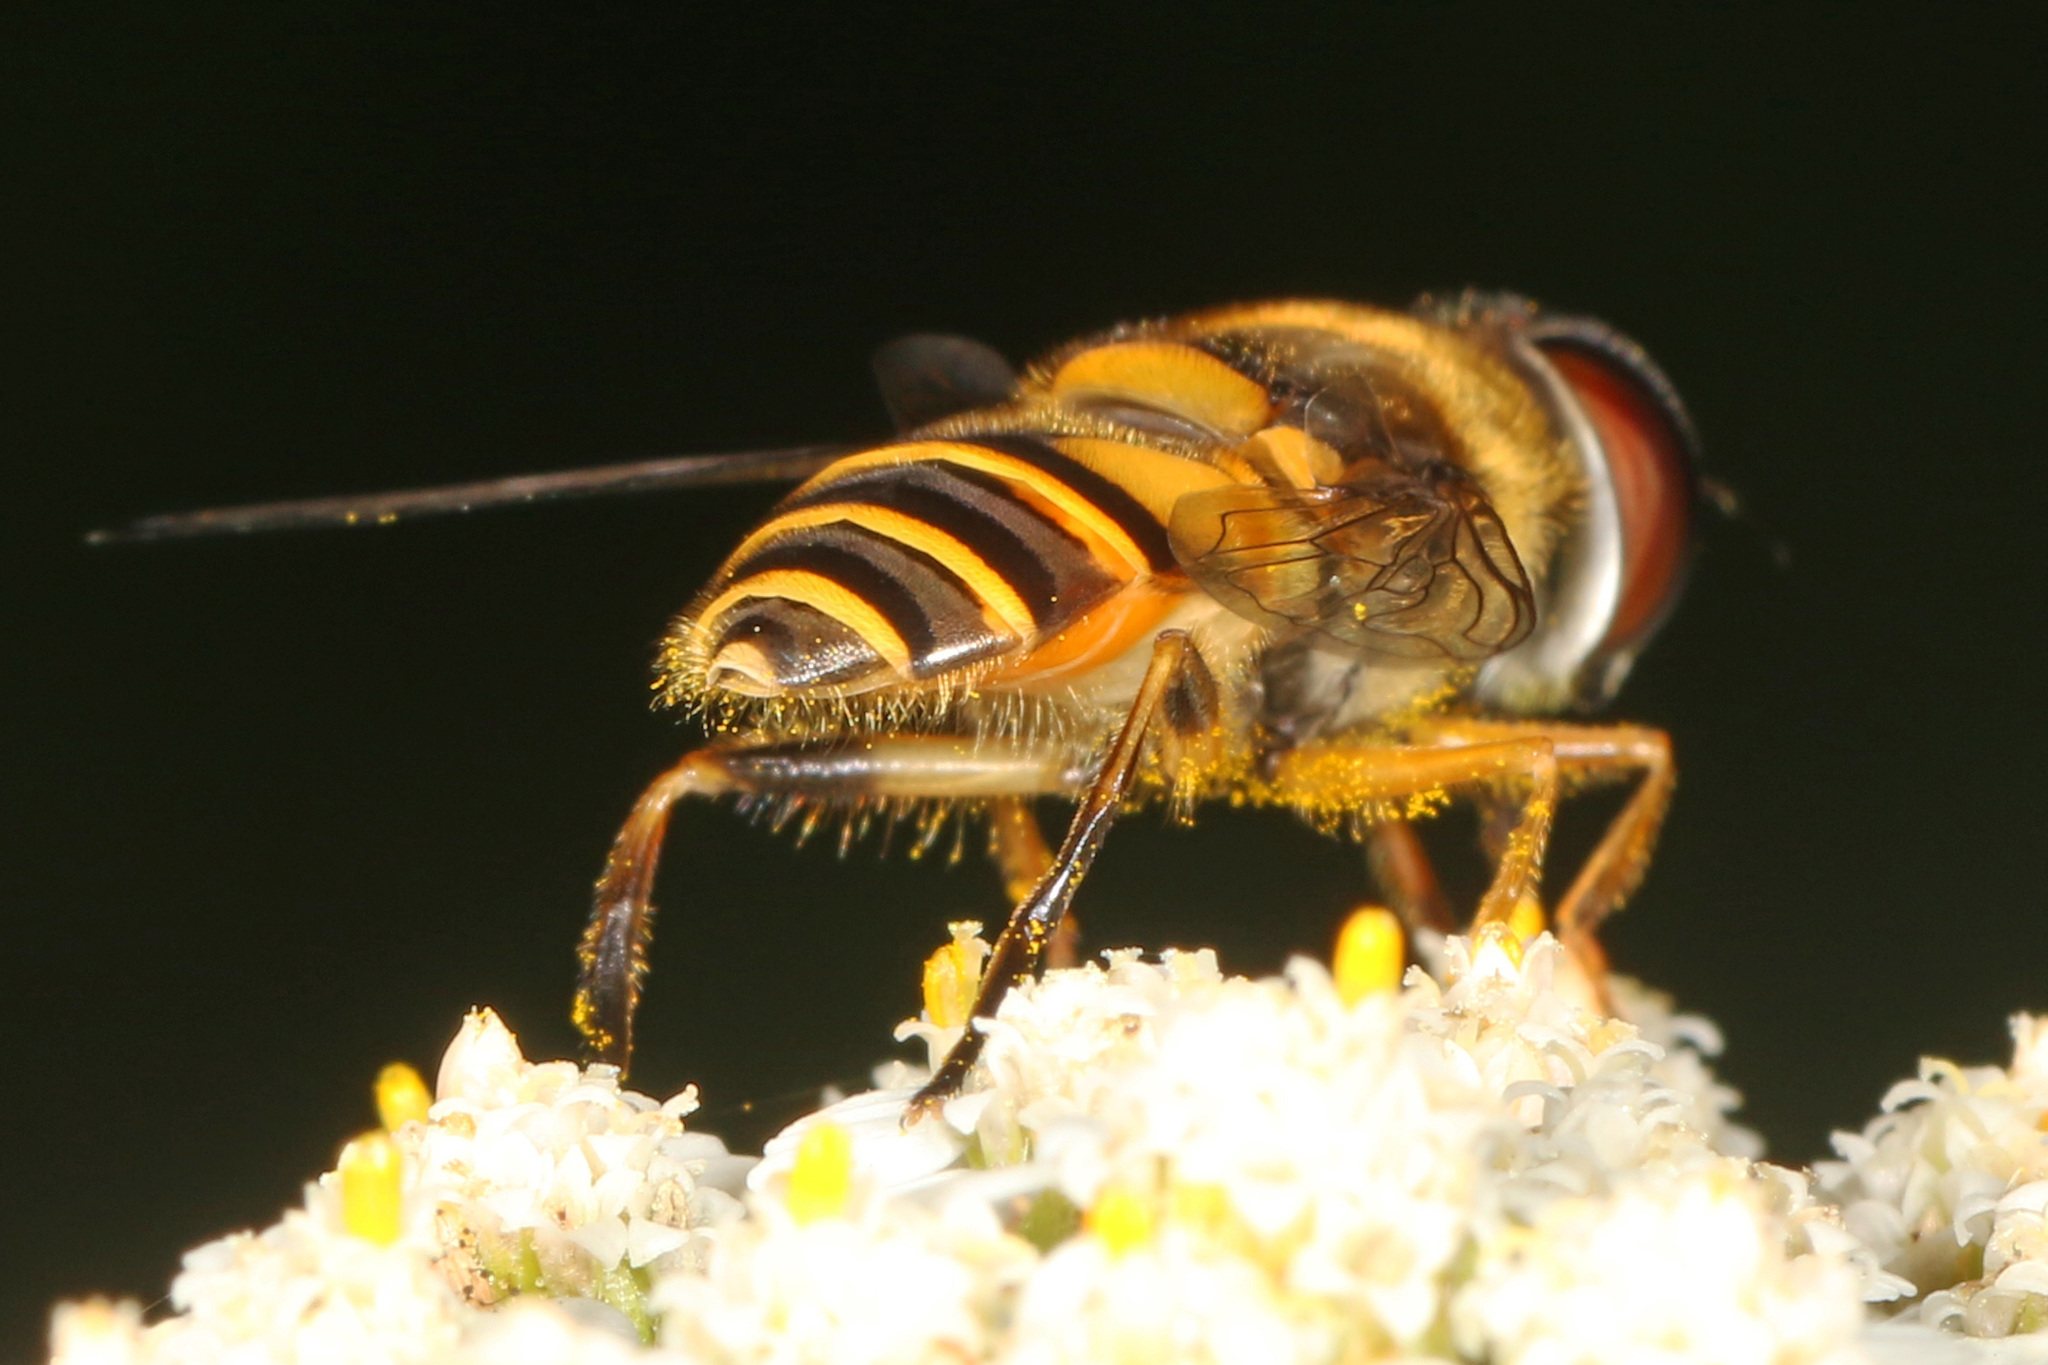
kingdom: Animalia
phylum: Arthropoda
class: Insecta
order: Diptera
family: Syrphidae
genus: Eristalis
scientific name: Eristalis transversa
